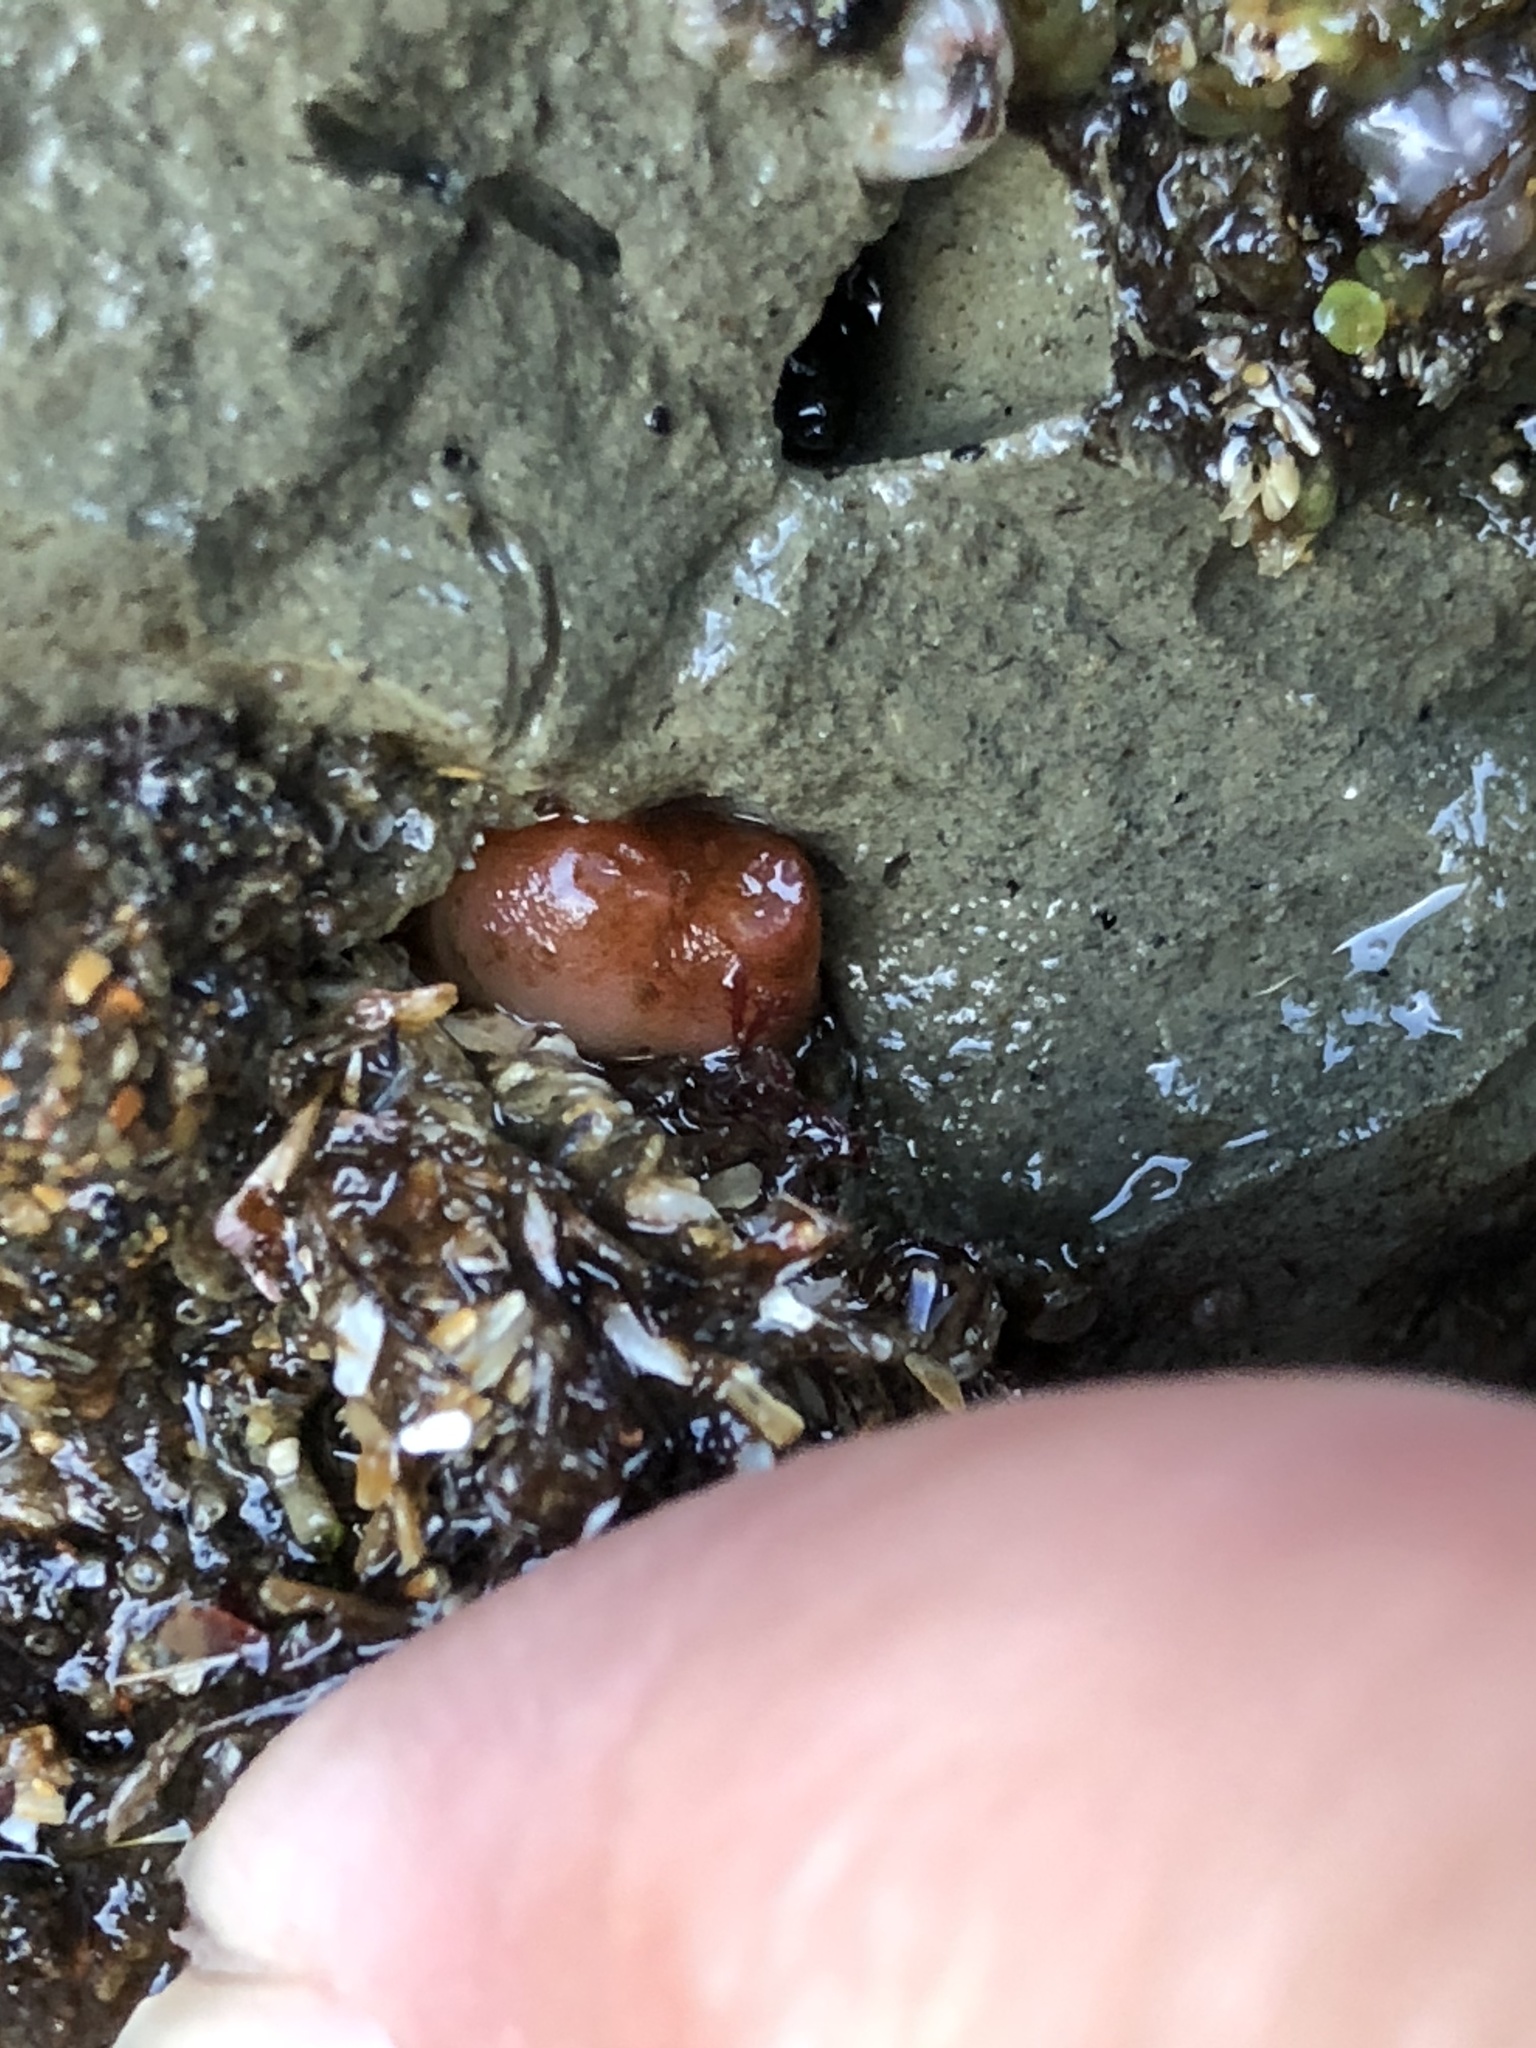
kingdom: Animalia
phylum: Mollusca
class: Bivalvia
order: Adapedonta
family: Hiatellidae
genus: Hiatella
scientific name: Hiatella arctica
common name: Arctic hiatella
